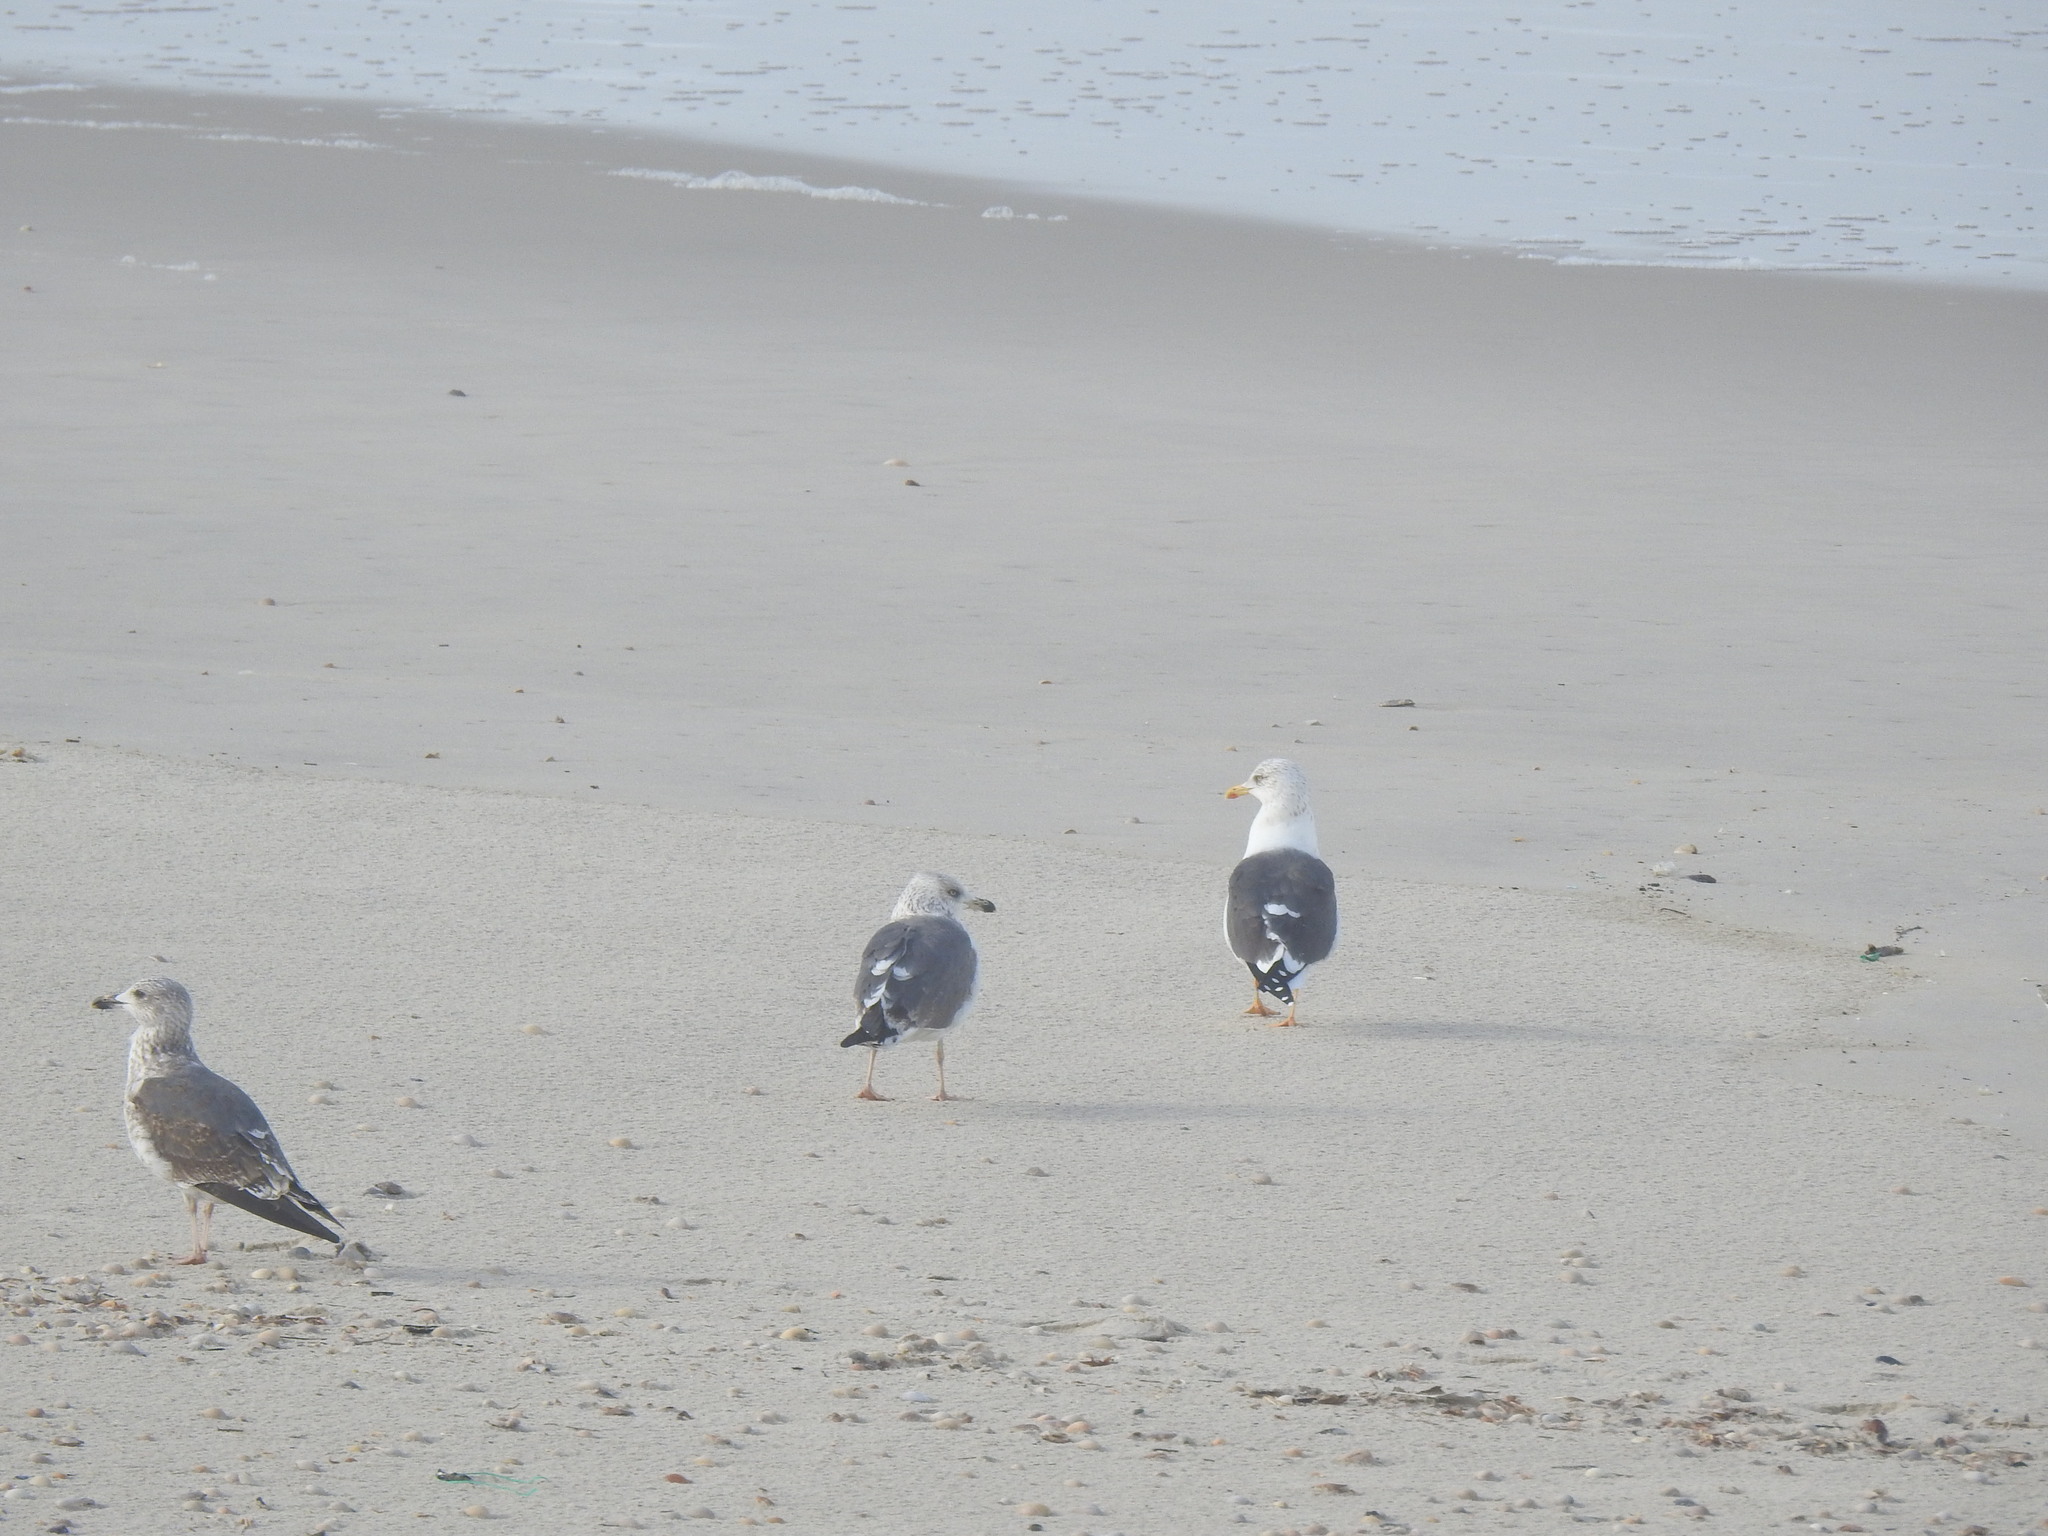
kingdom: Animalia
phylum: Chordata
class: Aves
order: Charadriiformes
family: Laridae
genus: Larus
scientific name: Larus fuscus
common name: Lesser black-backed gull
